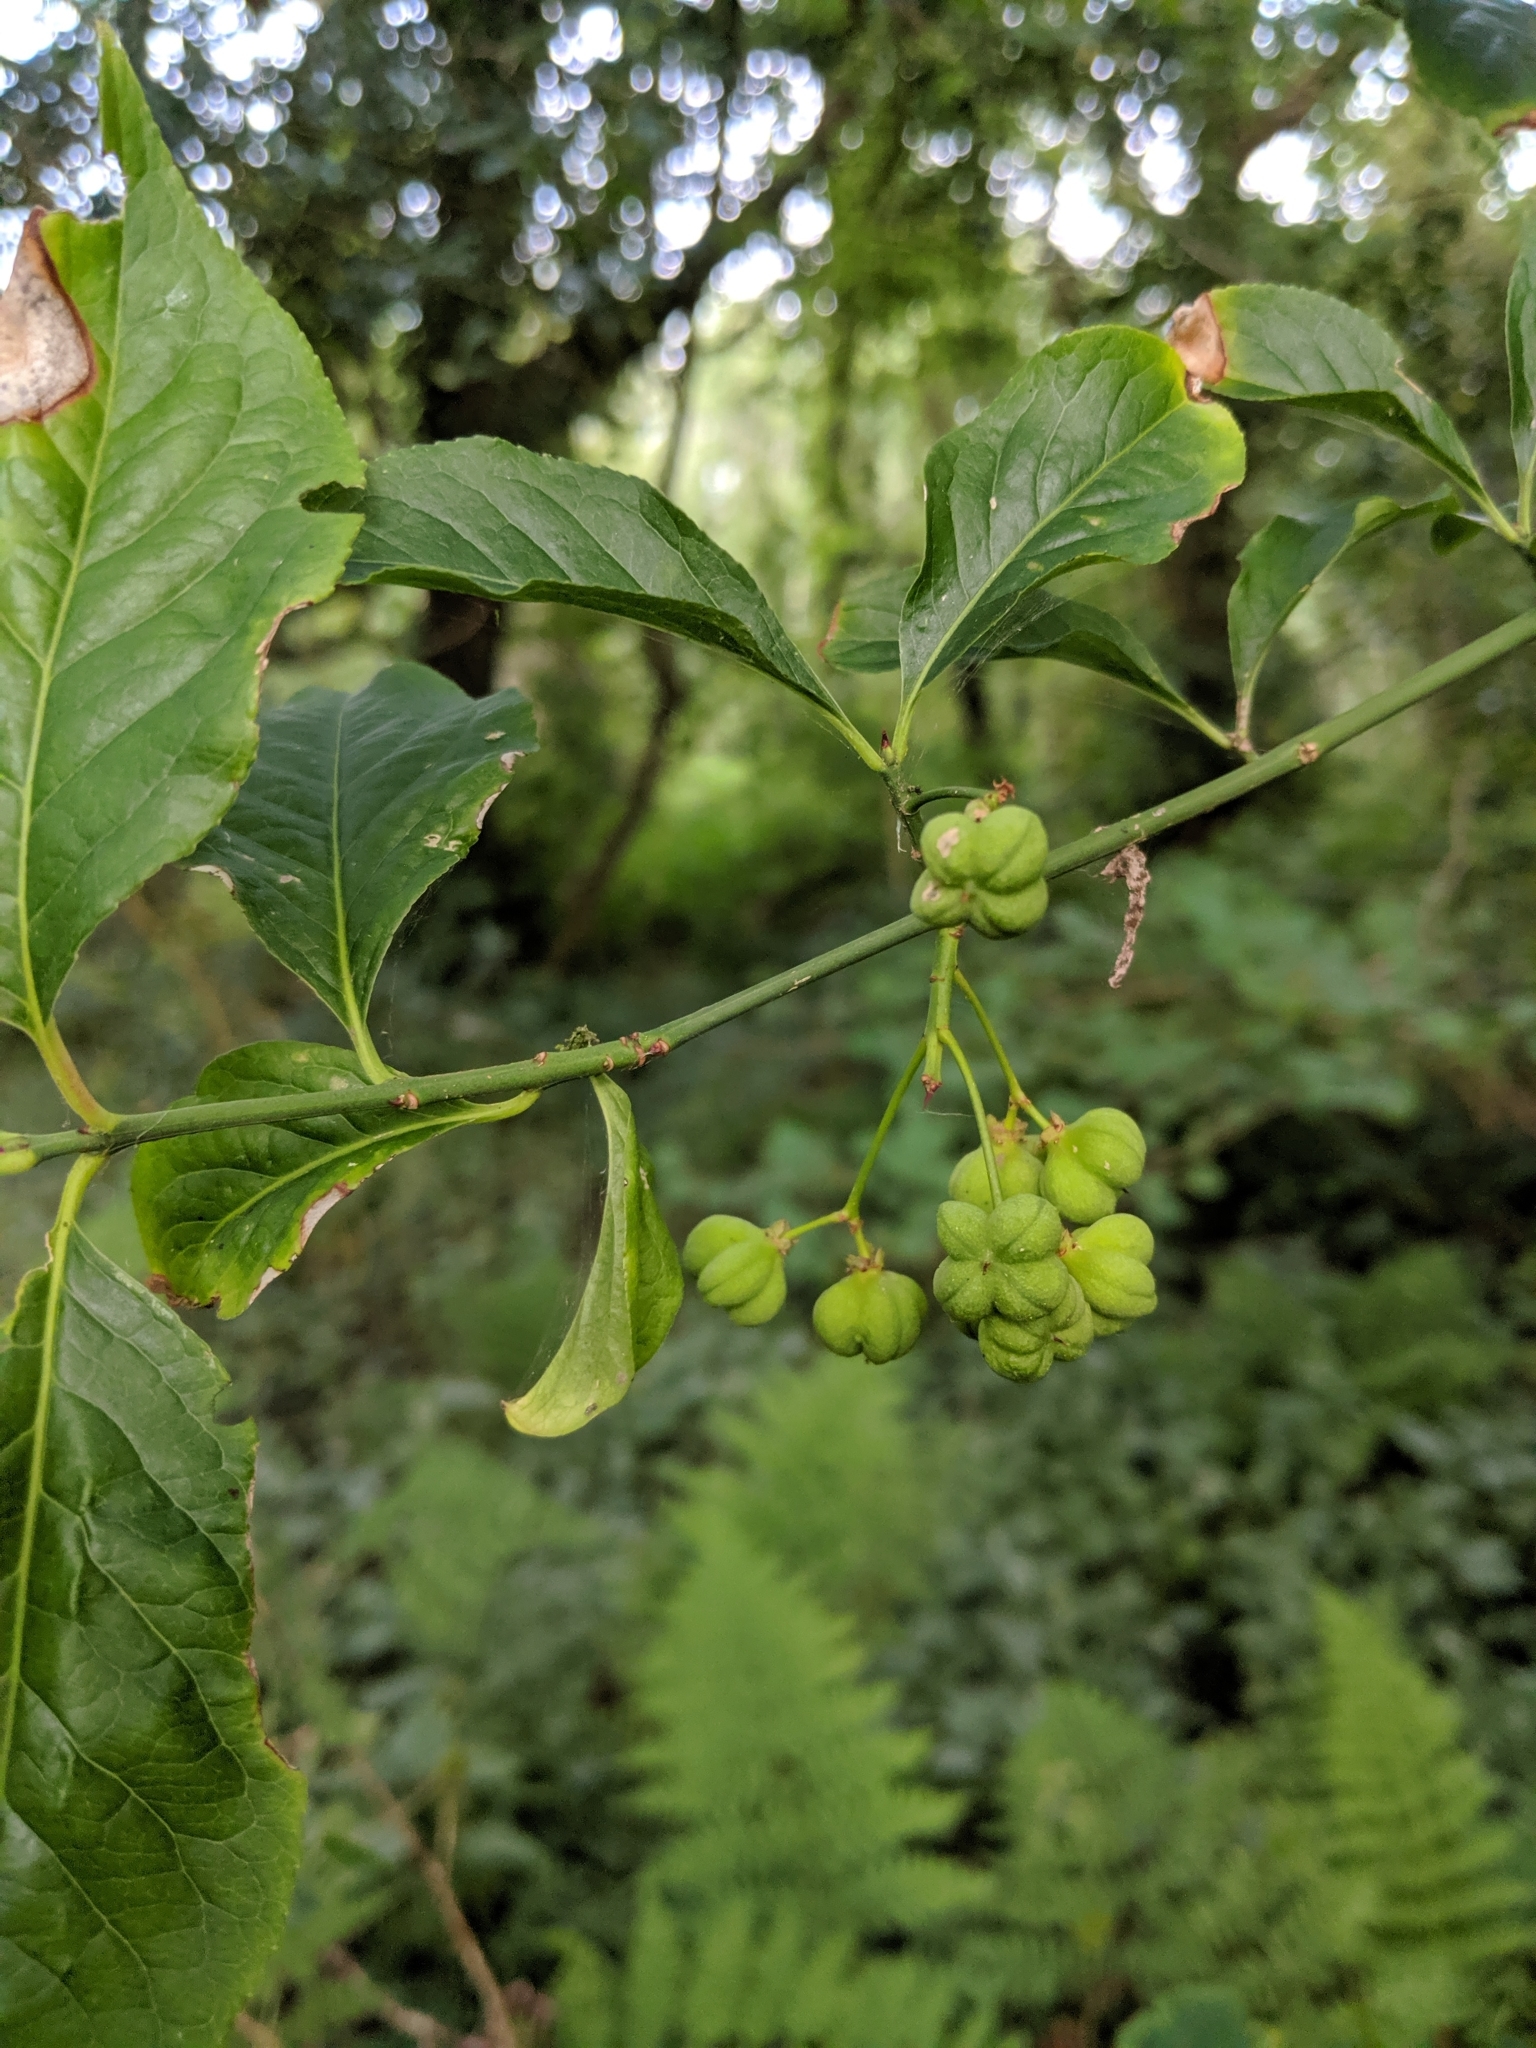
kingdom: Plantae
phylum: Tracheophyta
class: Magnoliopsida
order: Celastrales
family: Celastraceae
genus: Euonymus
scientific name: Euonymus europaeus
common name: Spindle
